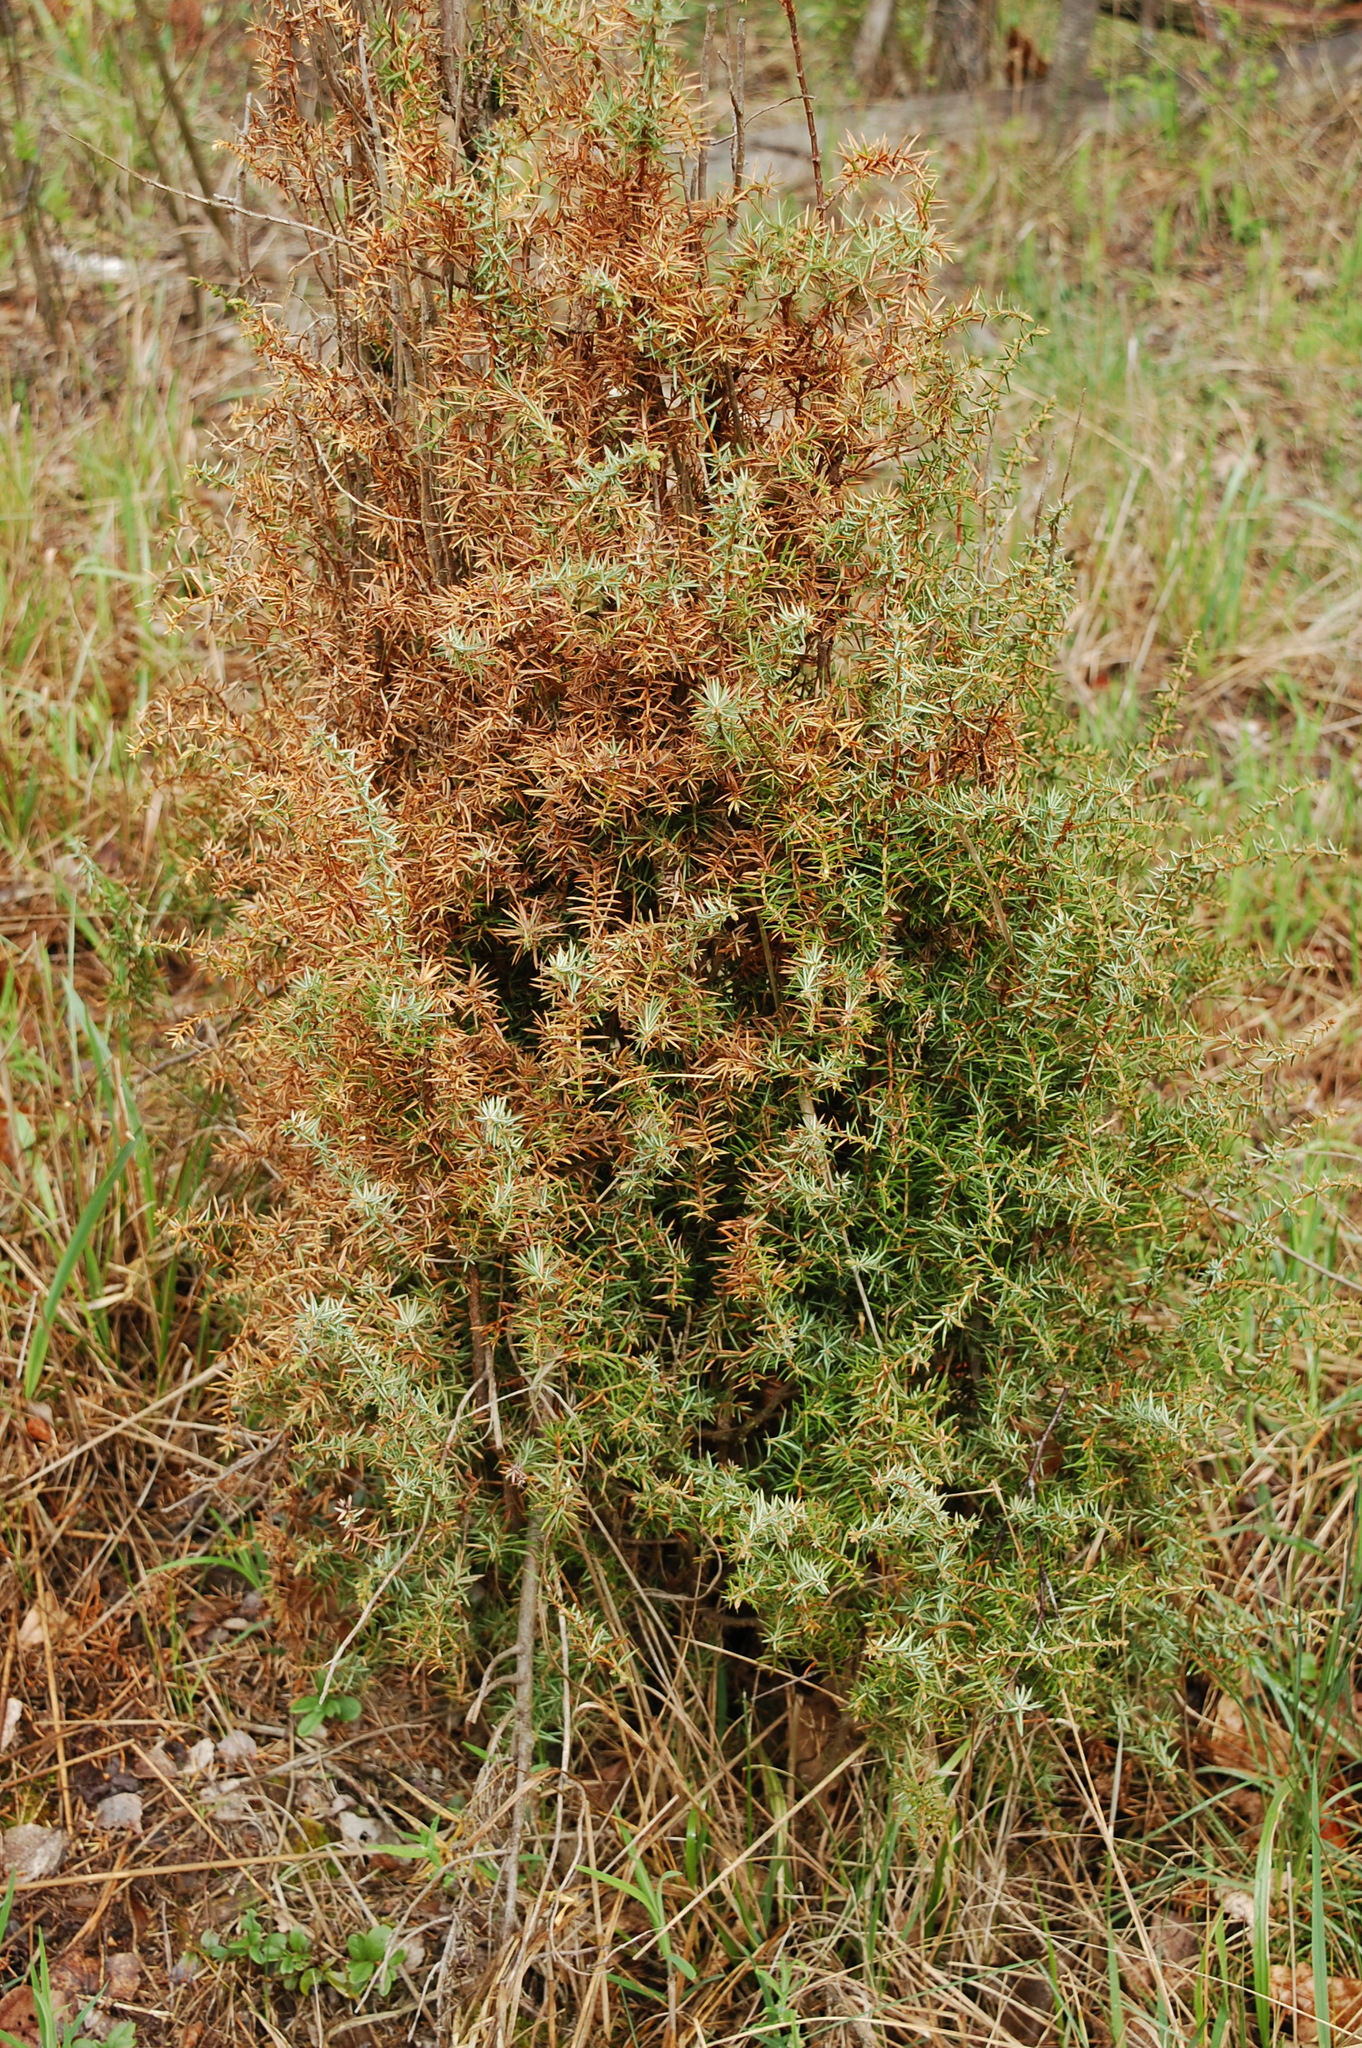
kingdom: Plantae
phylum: Tracheophyta
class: Pinopsida
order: Pinales
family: Cupressaceae
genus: Juniperus
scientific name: Juniperus communis
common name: Common juniper
